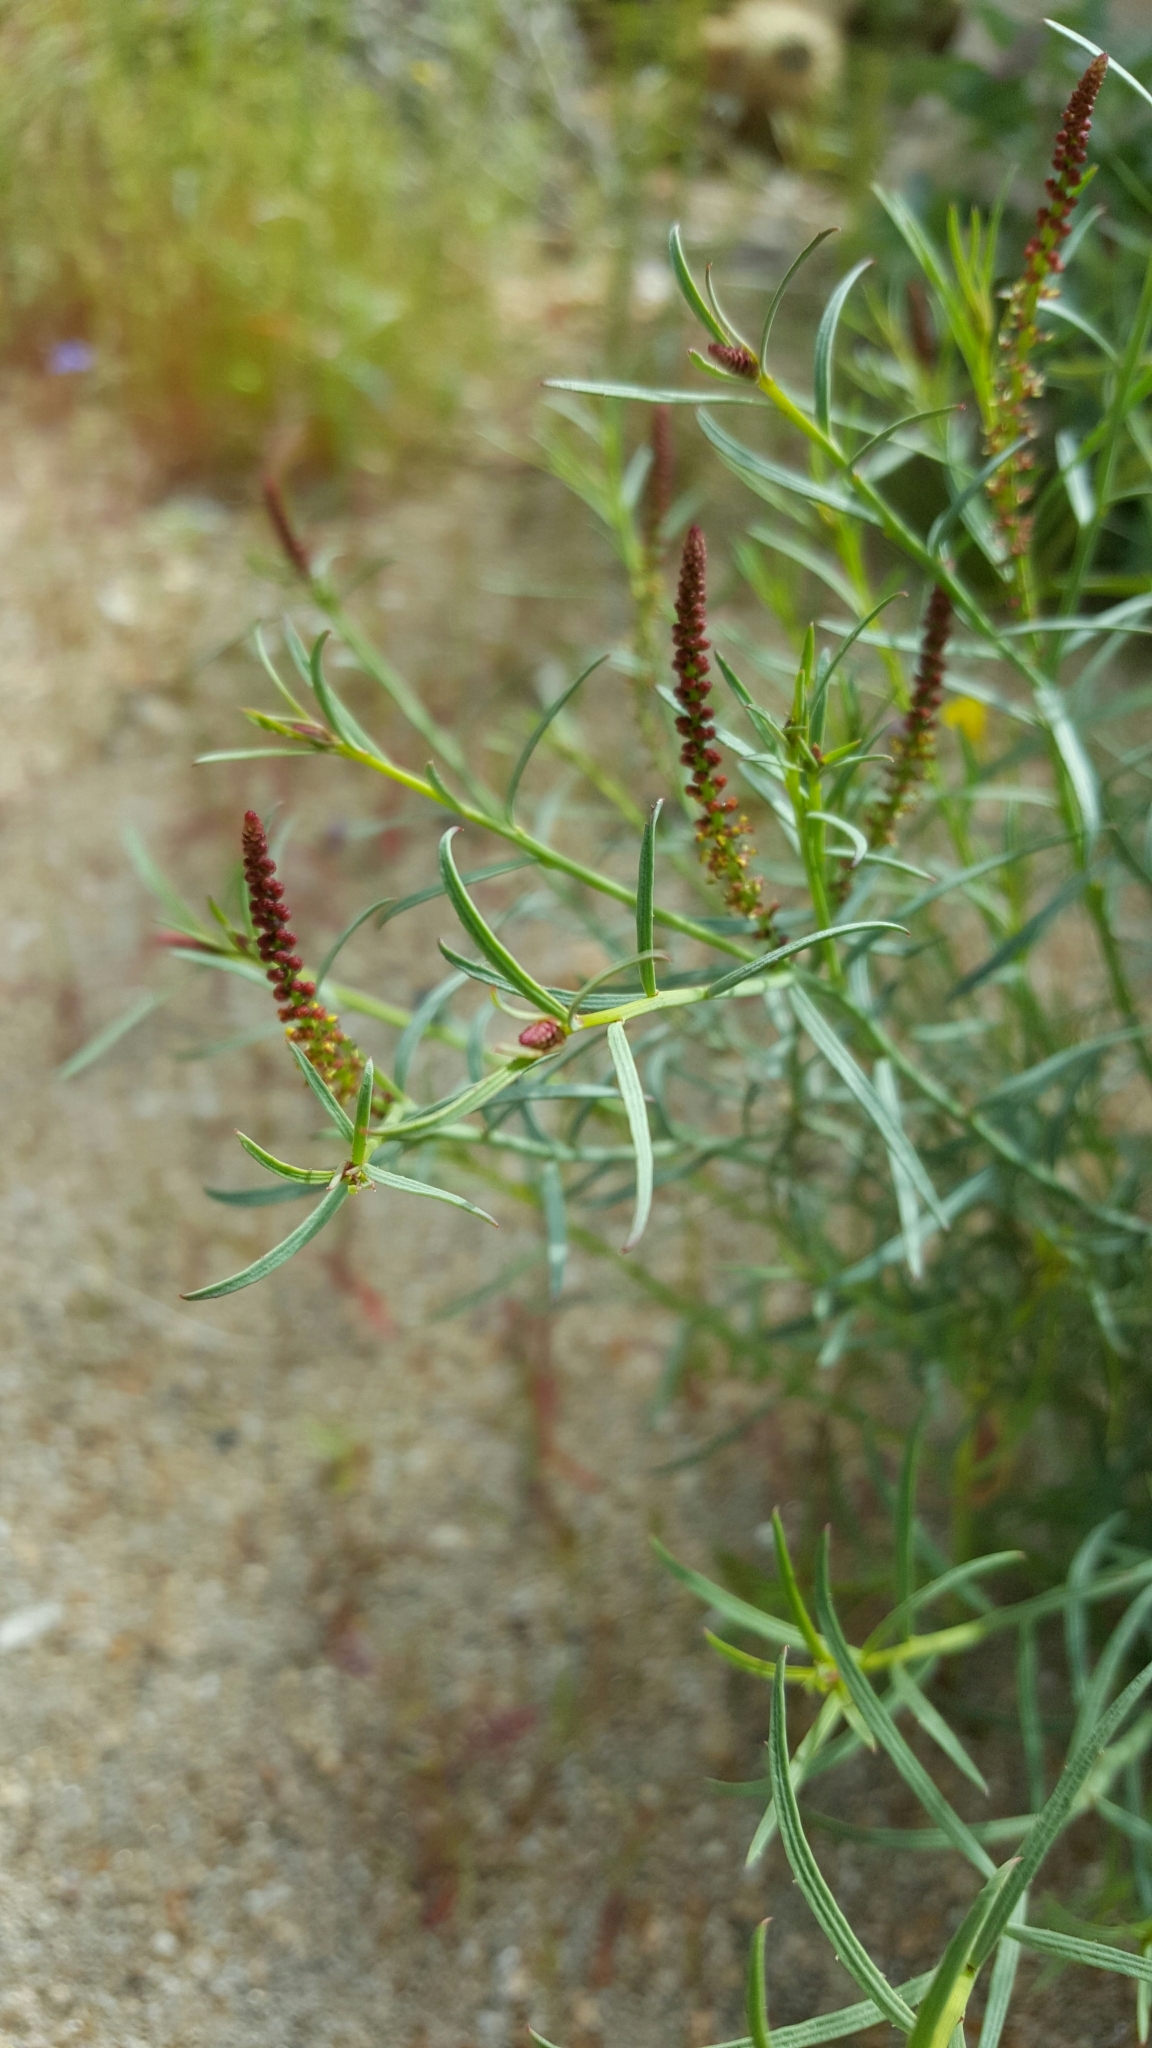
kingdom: Plantae
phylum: Tracheophyta
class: Magnoliopsida
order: Malpighiales
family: Euphorbiaceae
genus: Stillingia
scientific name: Stillingia linearifolia
